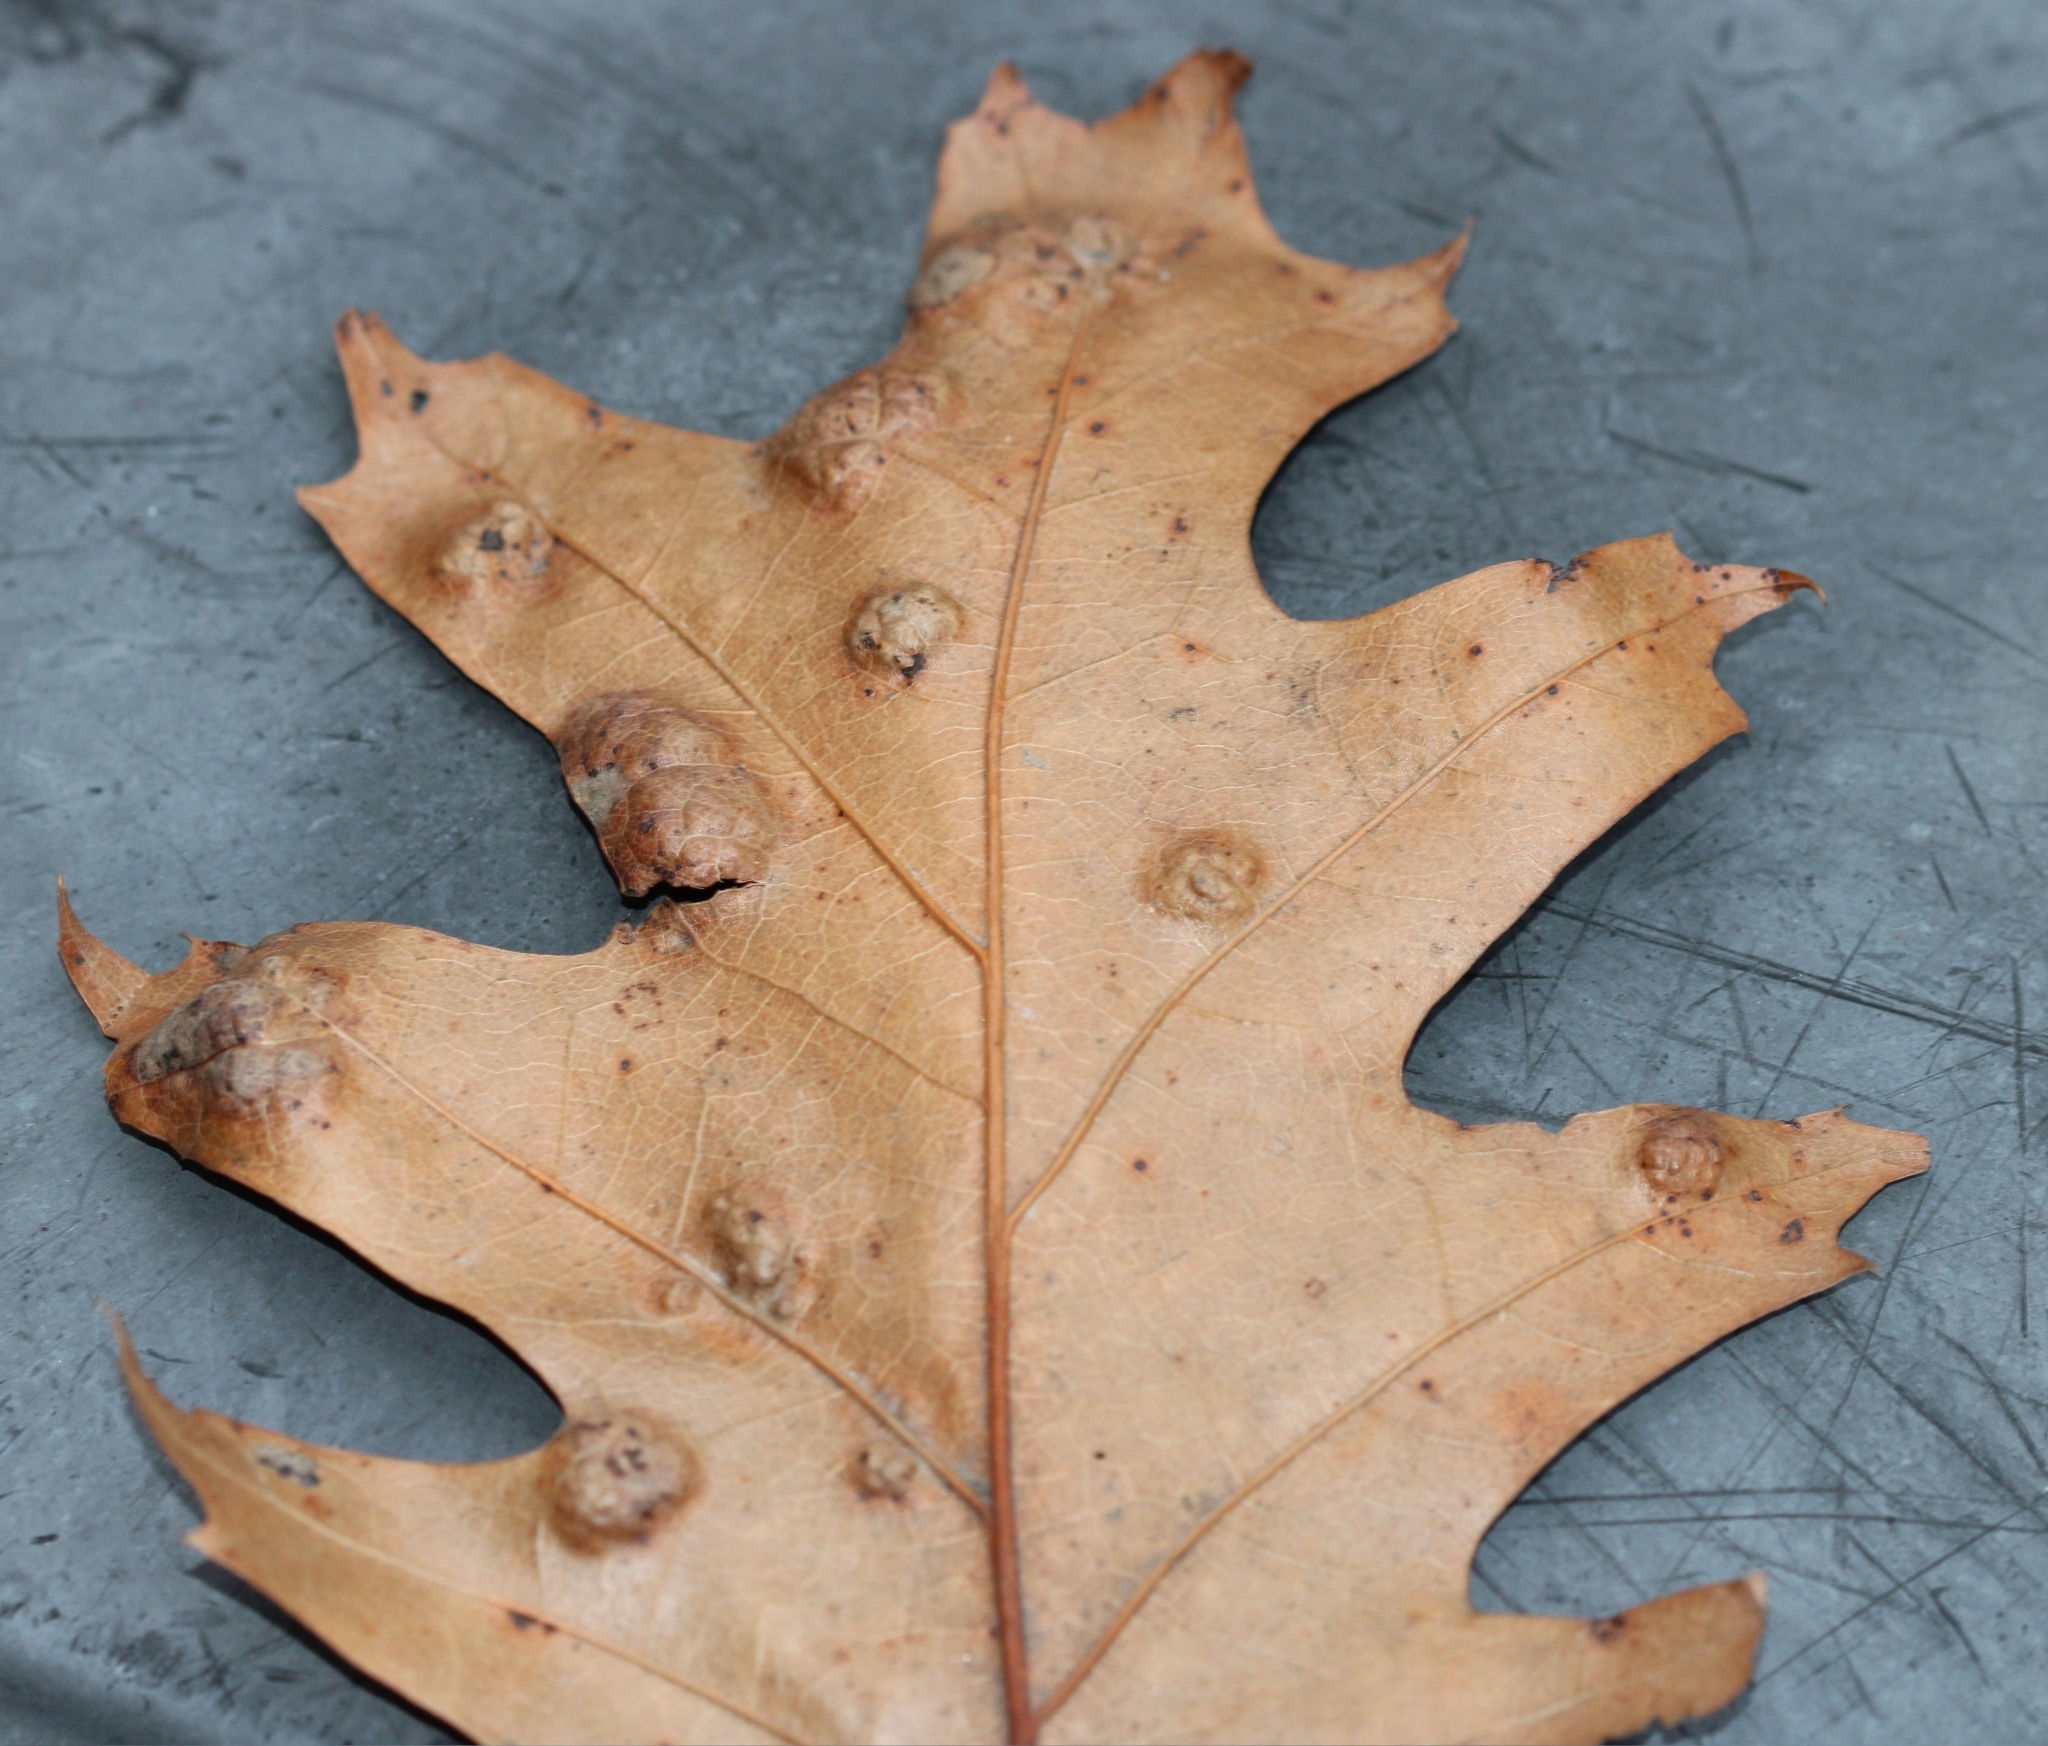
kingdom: Fungi
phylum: Ascomycota
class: Taphrinomycetes
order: Taphrinales
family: Taphrinaceae
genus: Taphrina
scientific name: Taphrina caerulescens
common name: Oak leaf blister
